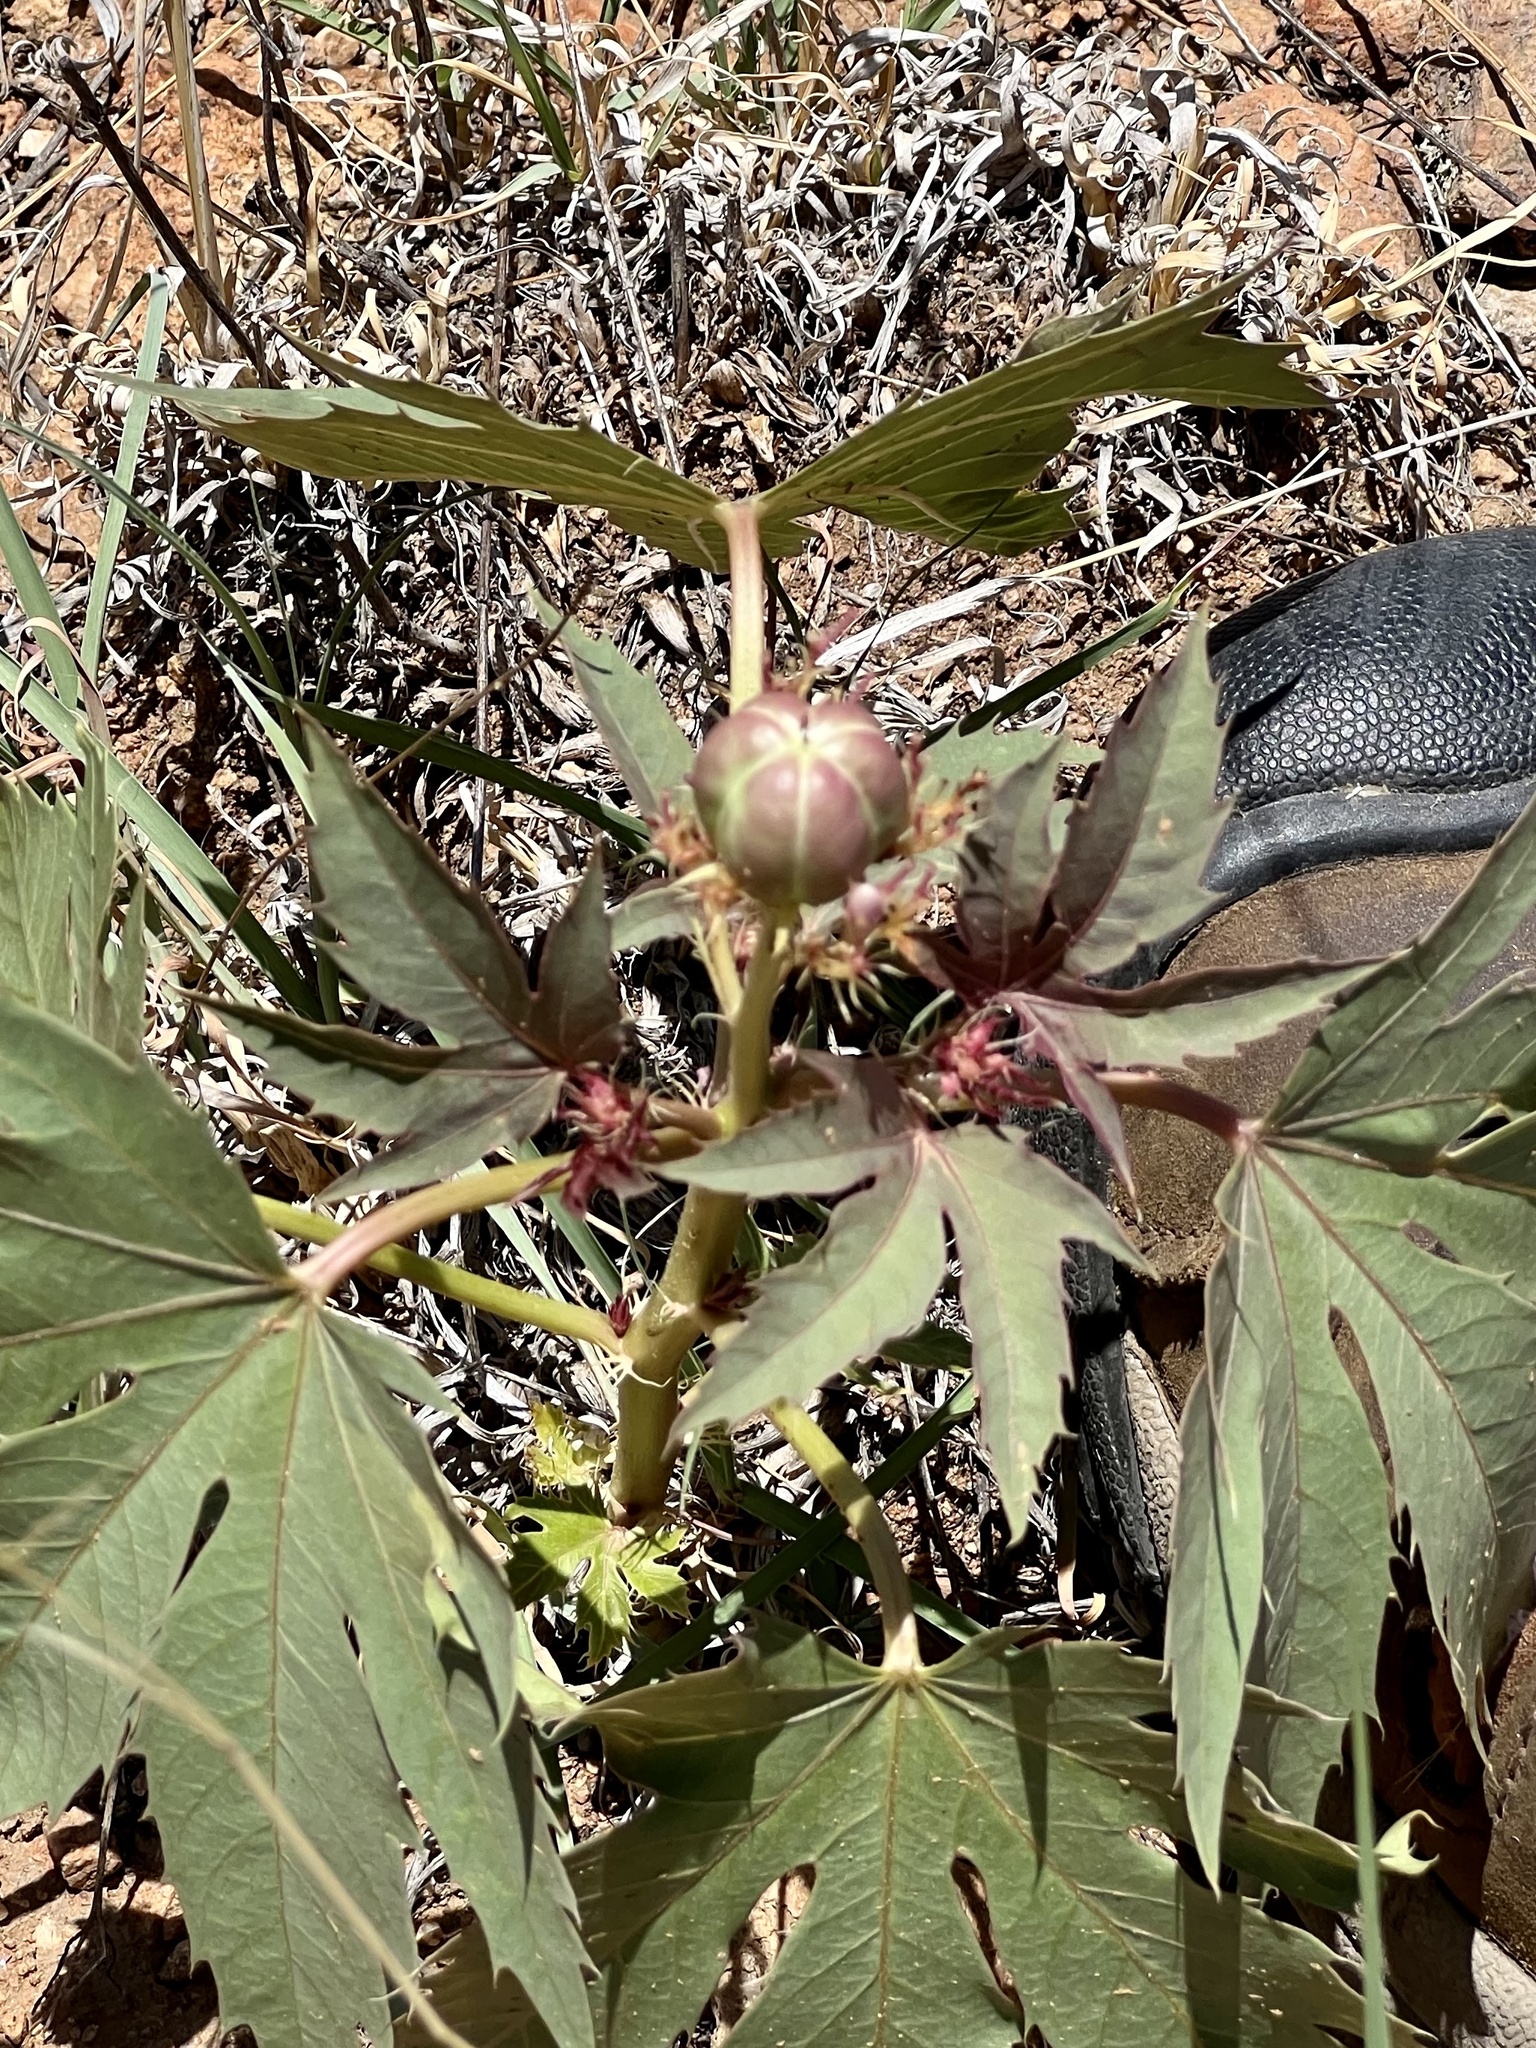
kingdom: Plantae
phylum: Tracheophyta
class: Magnoliopsida
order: Malpighiales
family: Euphorbiaceae
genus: Jatropha
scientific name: Jatropha macrorhiza
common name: Ragged nettlespurge
